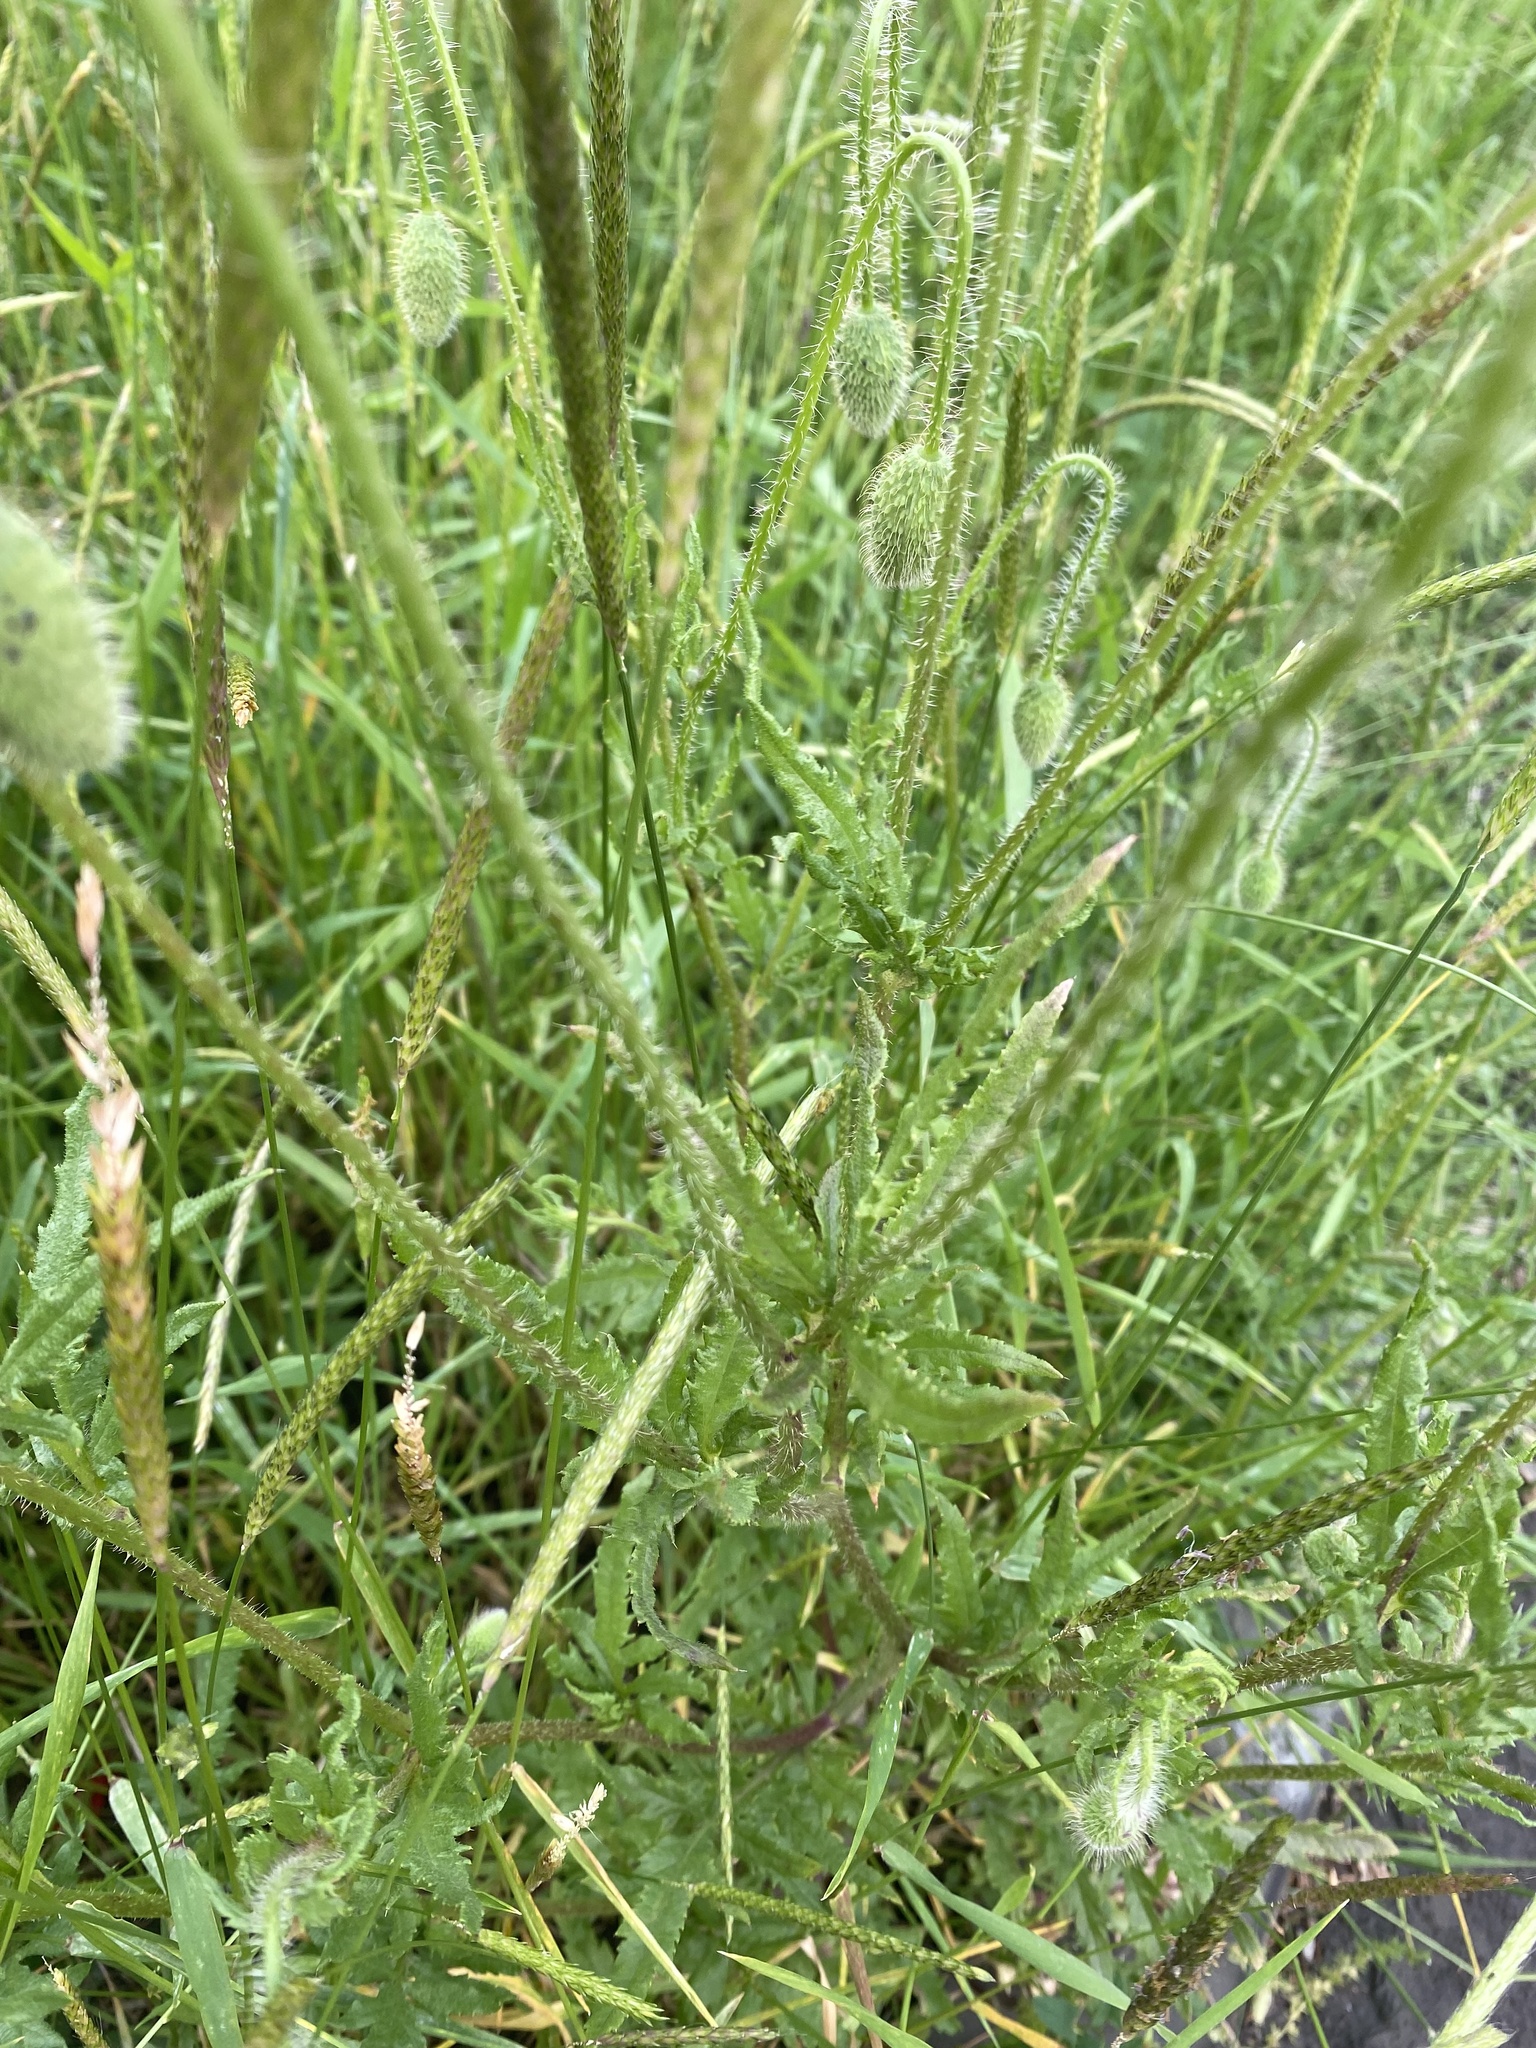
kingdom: Plantae
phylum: Tracheophyta
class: Magnoliopsida
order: Ranunculales
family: Papaveraceae
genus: Papaver
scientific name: Papaver rhoeas
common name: Corn poppy
